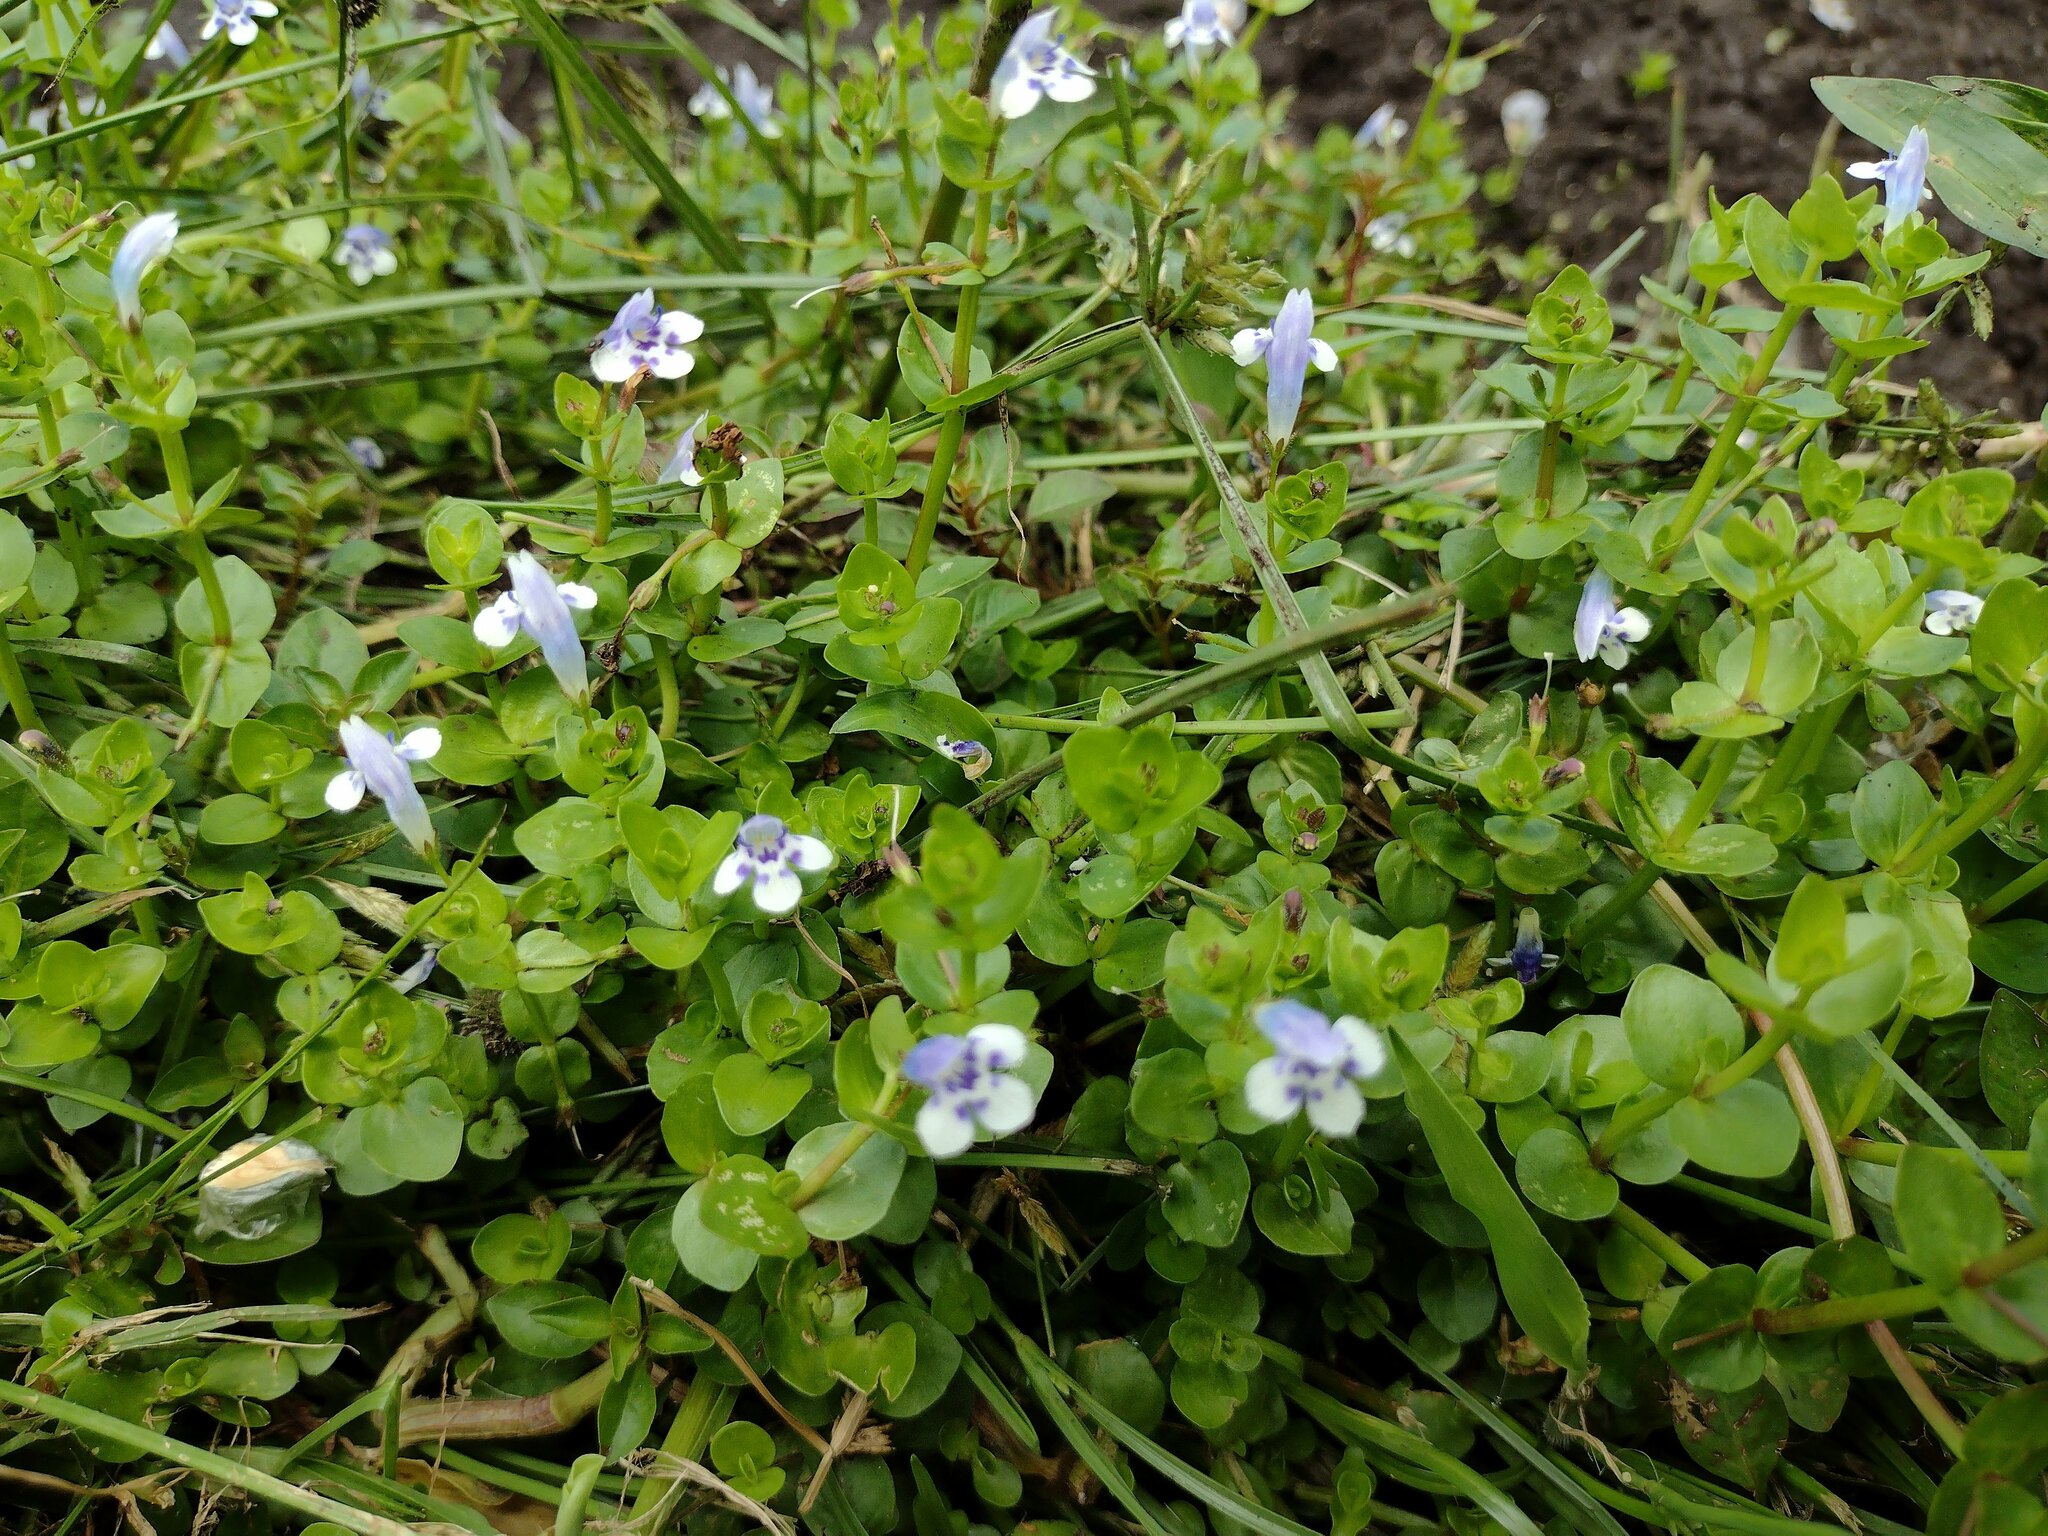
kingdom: Plantae
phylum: Tracheophyta
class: Magnoliopsida
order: Lamiales
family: Linderniaceae
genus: Lindernia
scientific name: Lindernia rotundifolia
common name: Baby’s tears
